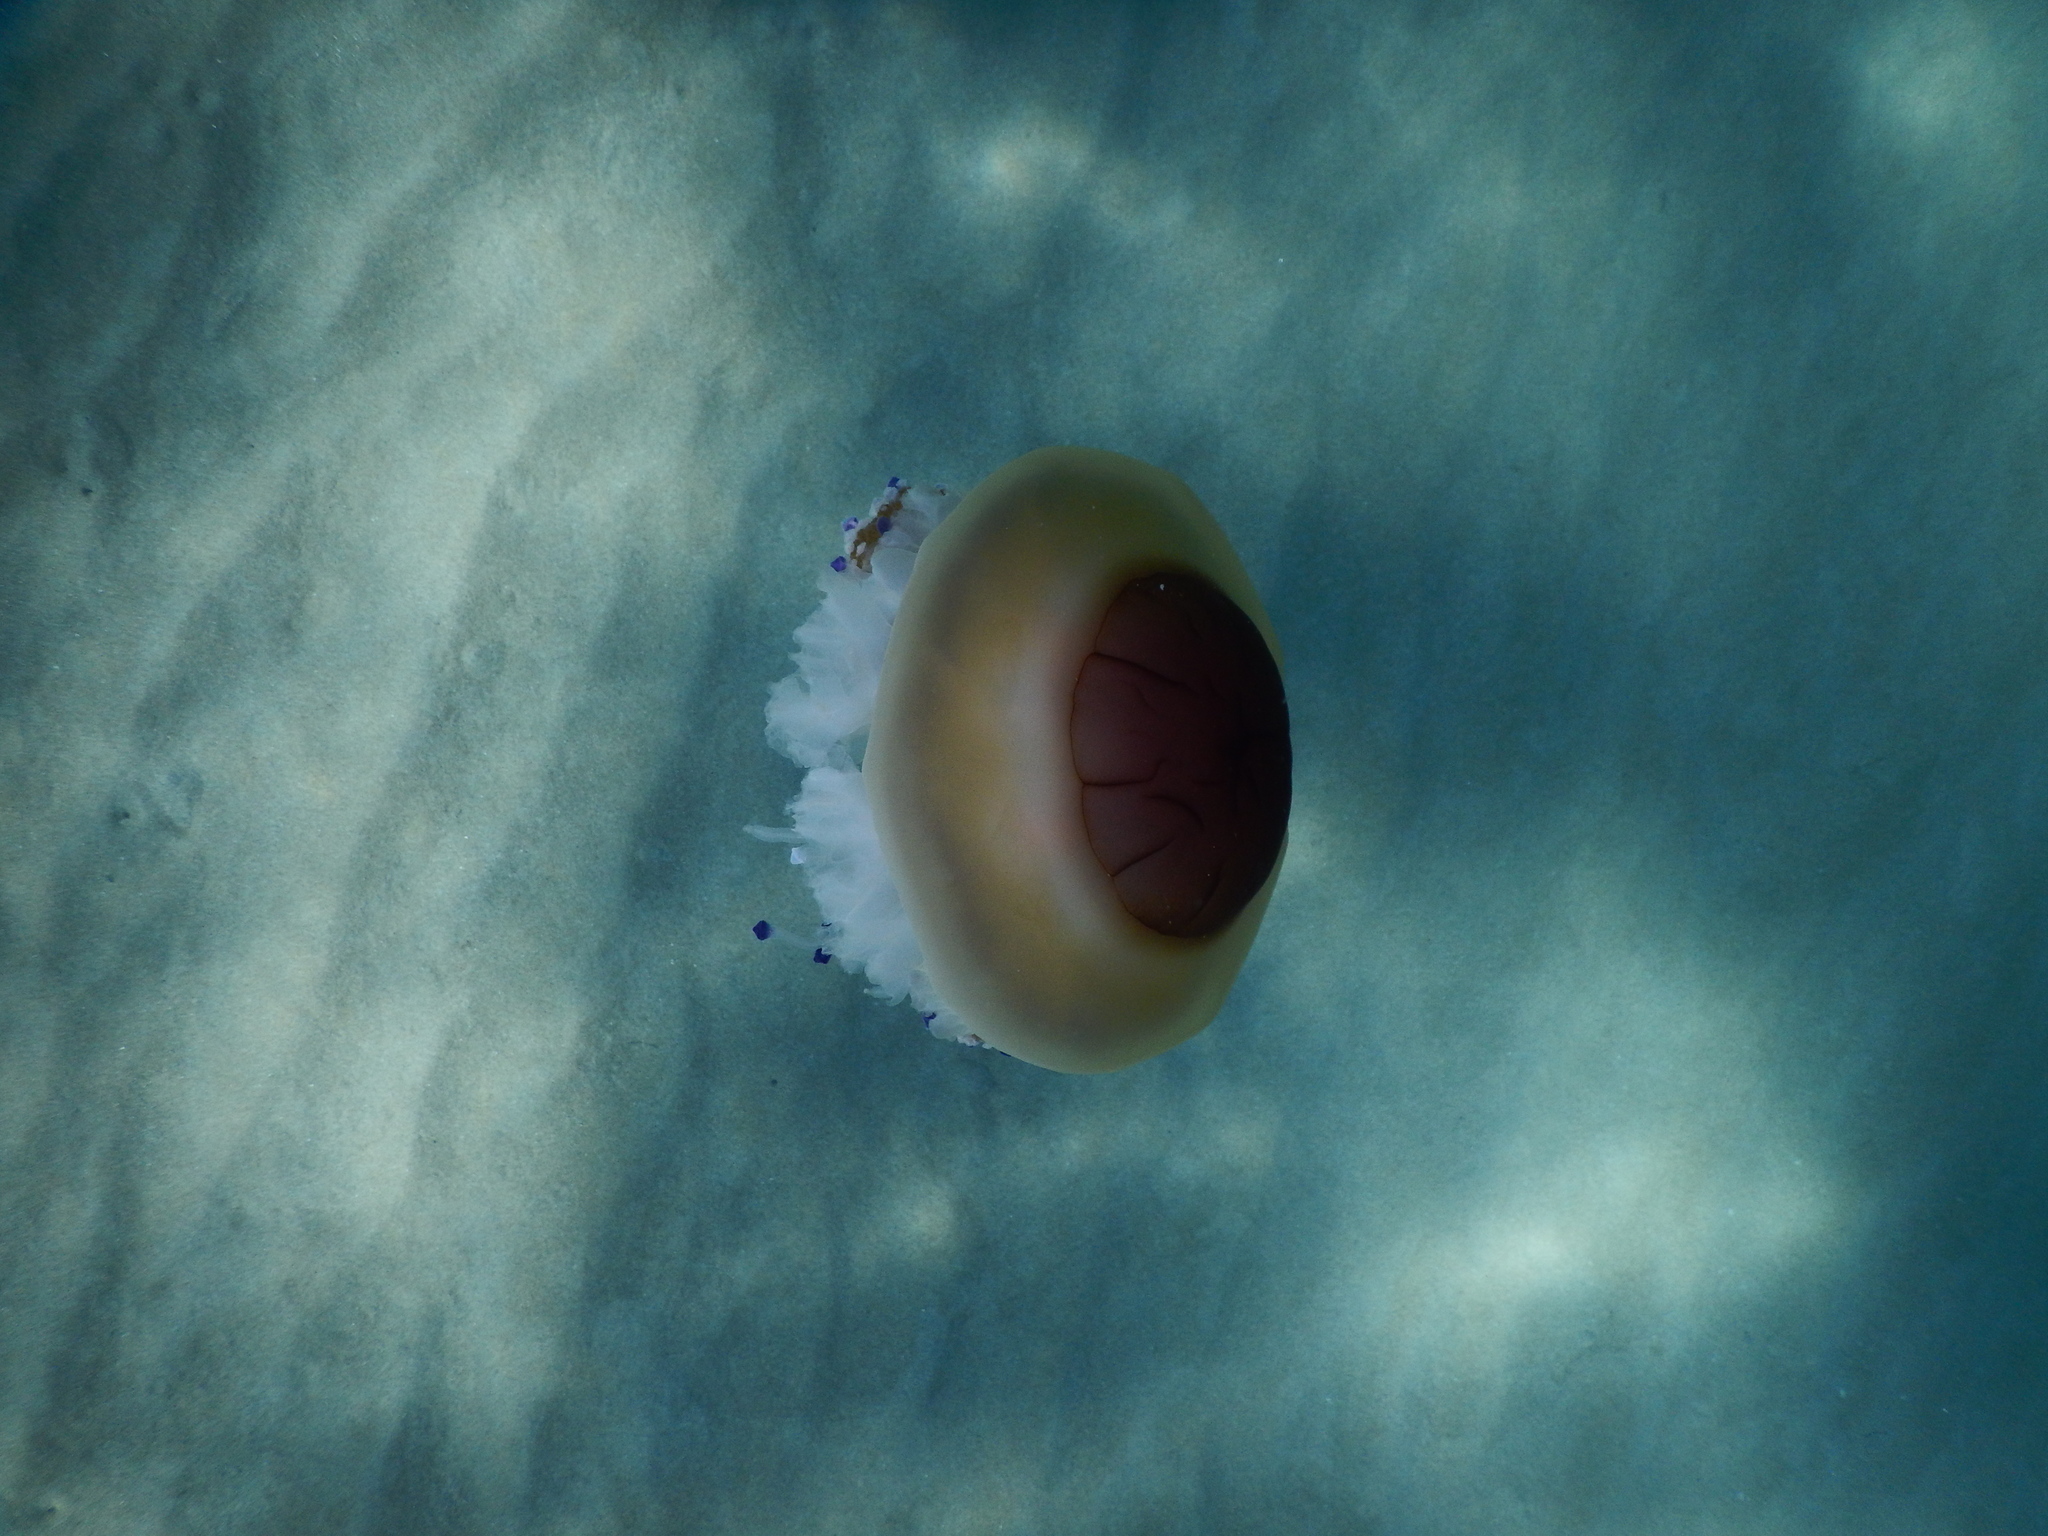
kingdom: Animalia
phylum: Cnidaria
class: Scyphozoa
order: Rhizostomeae
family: Cepheidae
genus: Cotylorhiza
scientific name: Cotylorhiza tuberculata
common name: Mediterranean jelly
